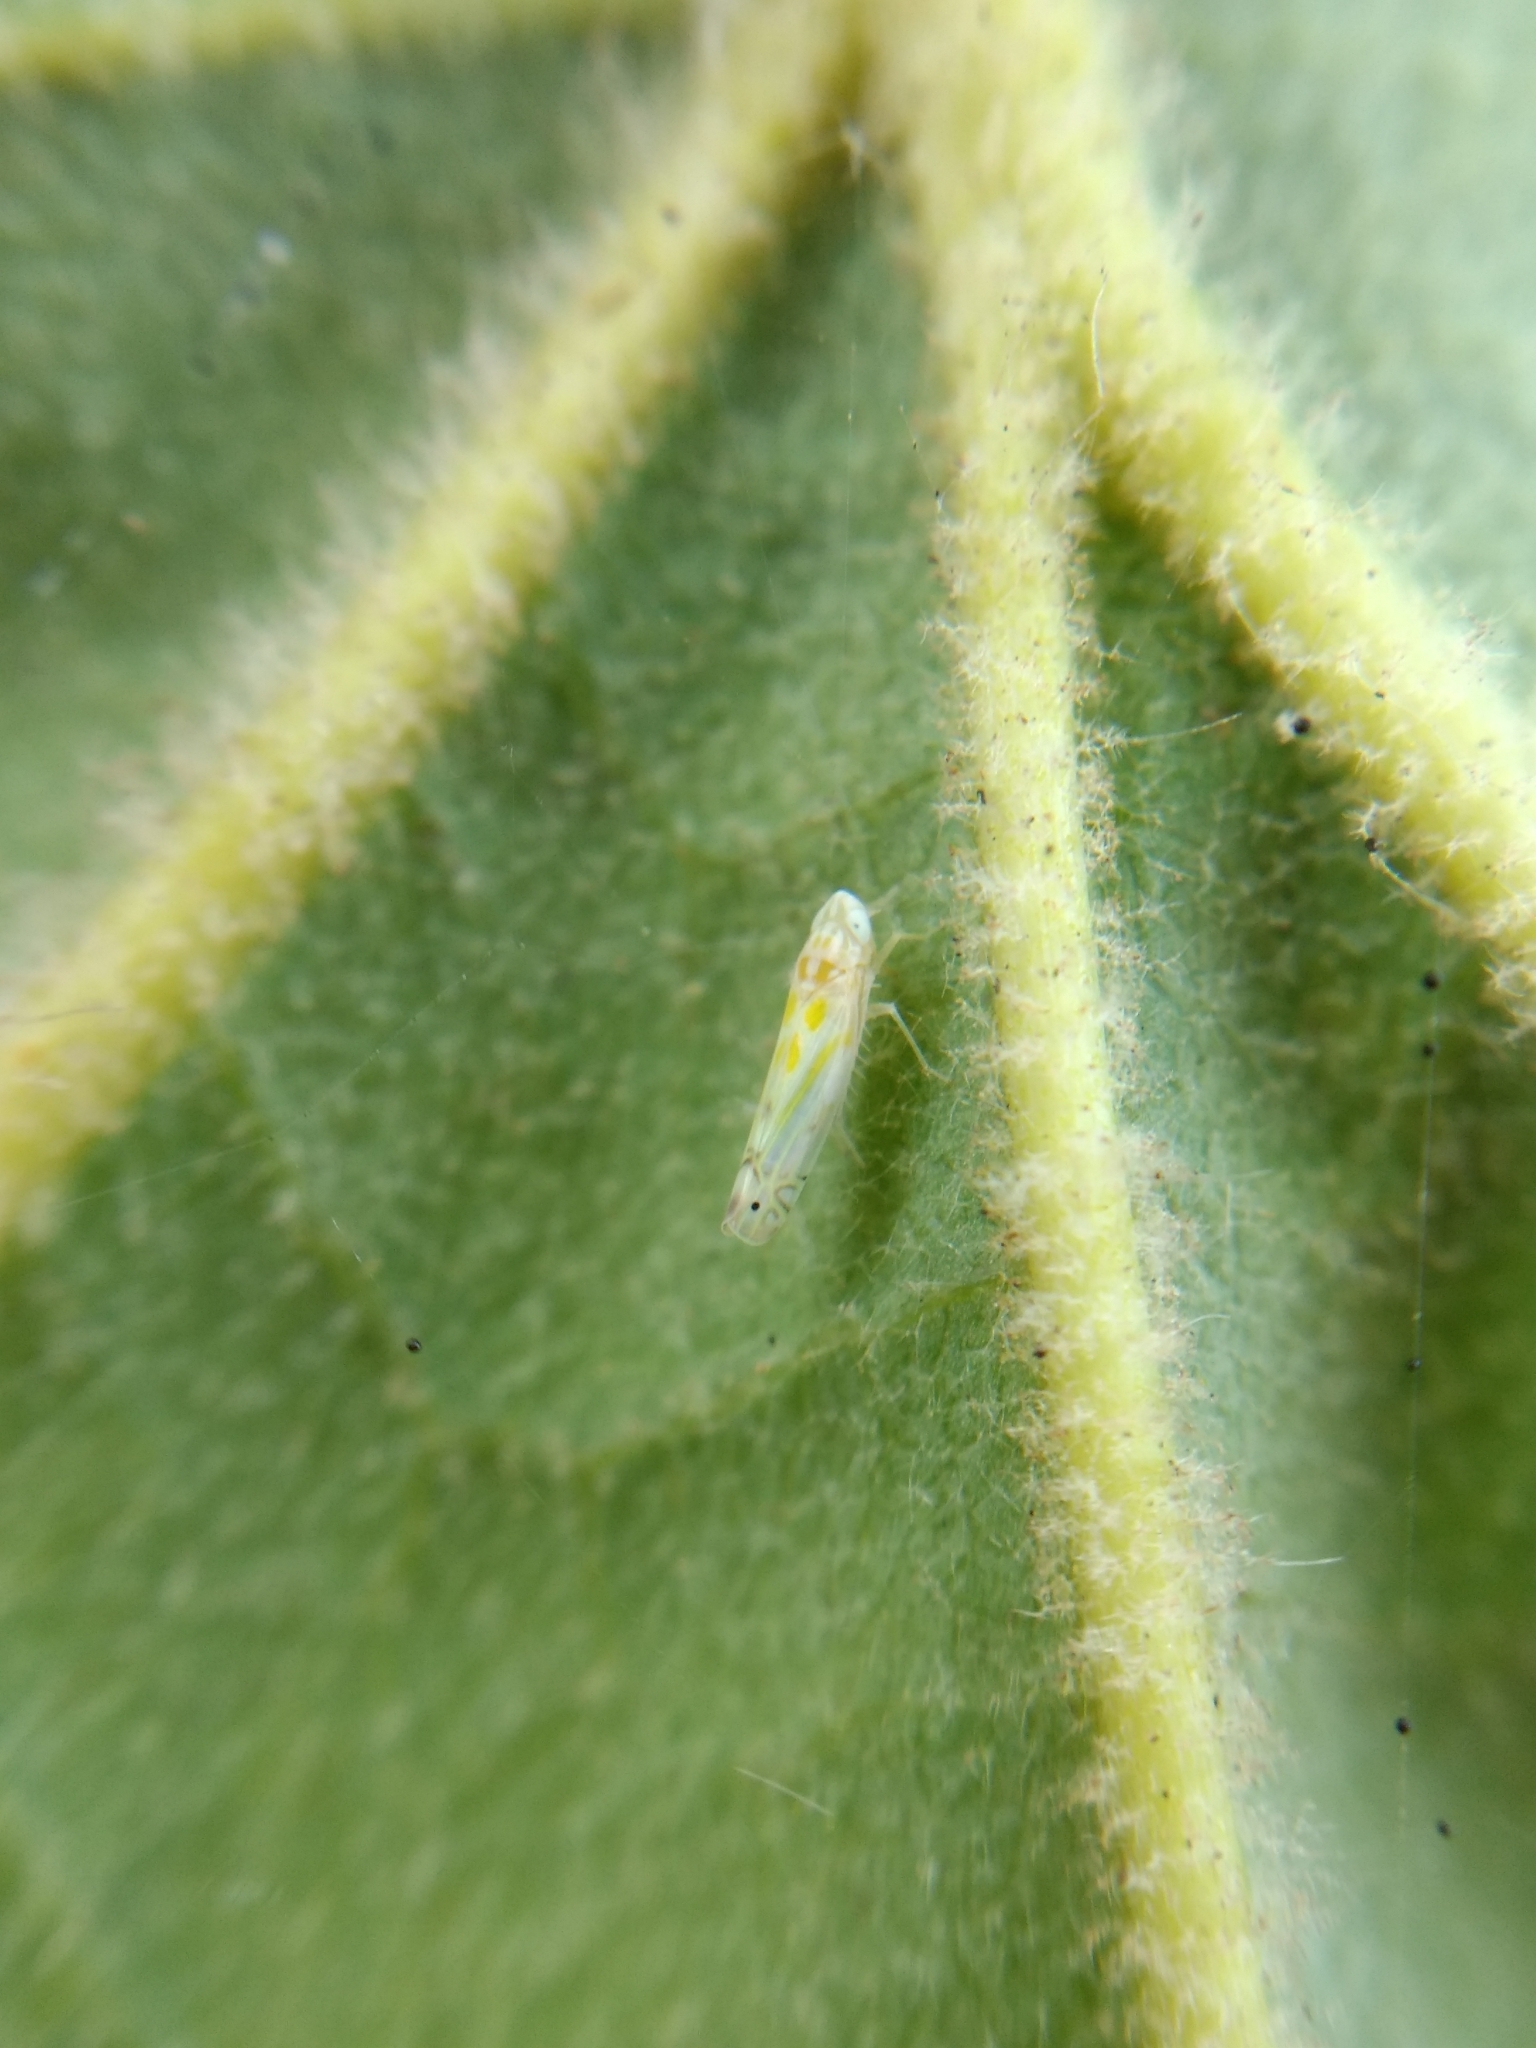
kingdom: Animalia
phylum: Arthropoda
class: Insecta
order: Hemiptera
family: Cicadellidae
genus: Alconeura
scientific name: Alconeura quadrimaculata
